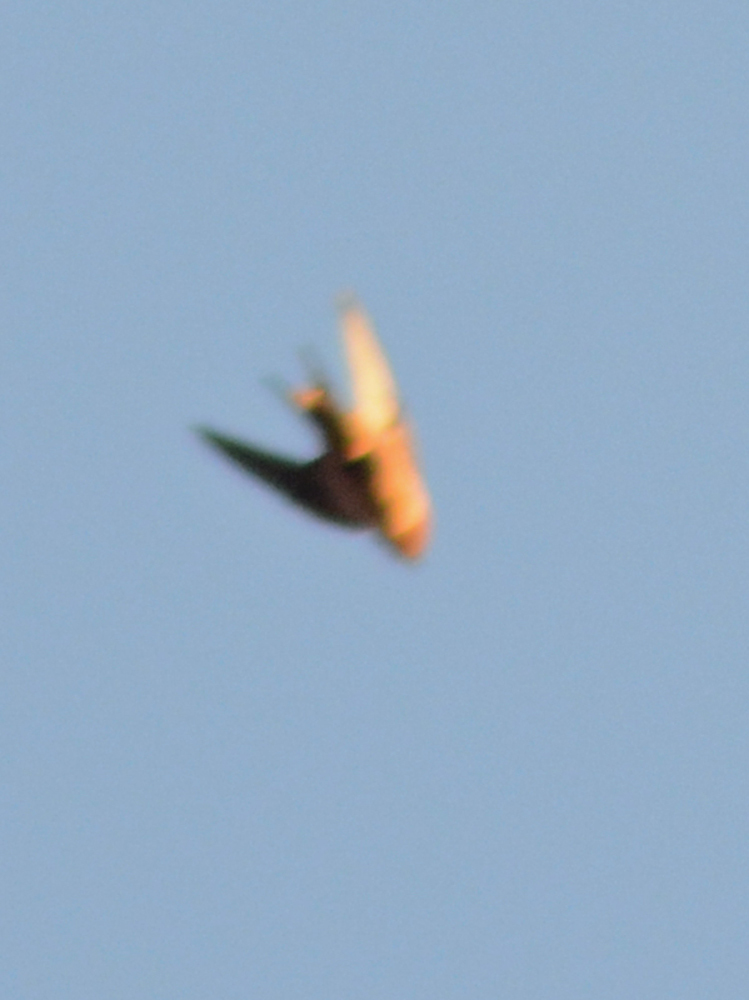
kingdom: Animalia
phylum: Chordata
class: Aves
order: Passeriformes
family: Hirundinidae
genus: Hirundo
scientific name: Hirundo rustica
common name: Barn swallow
